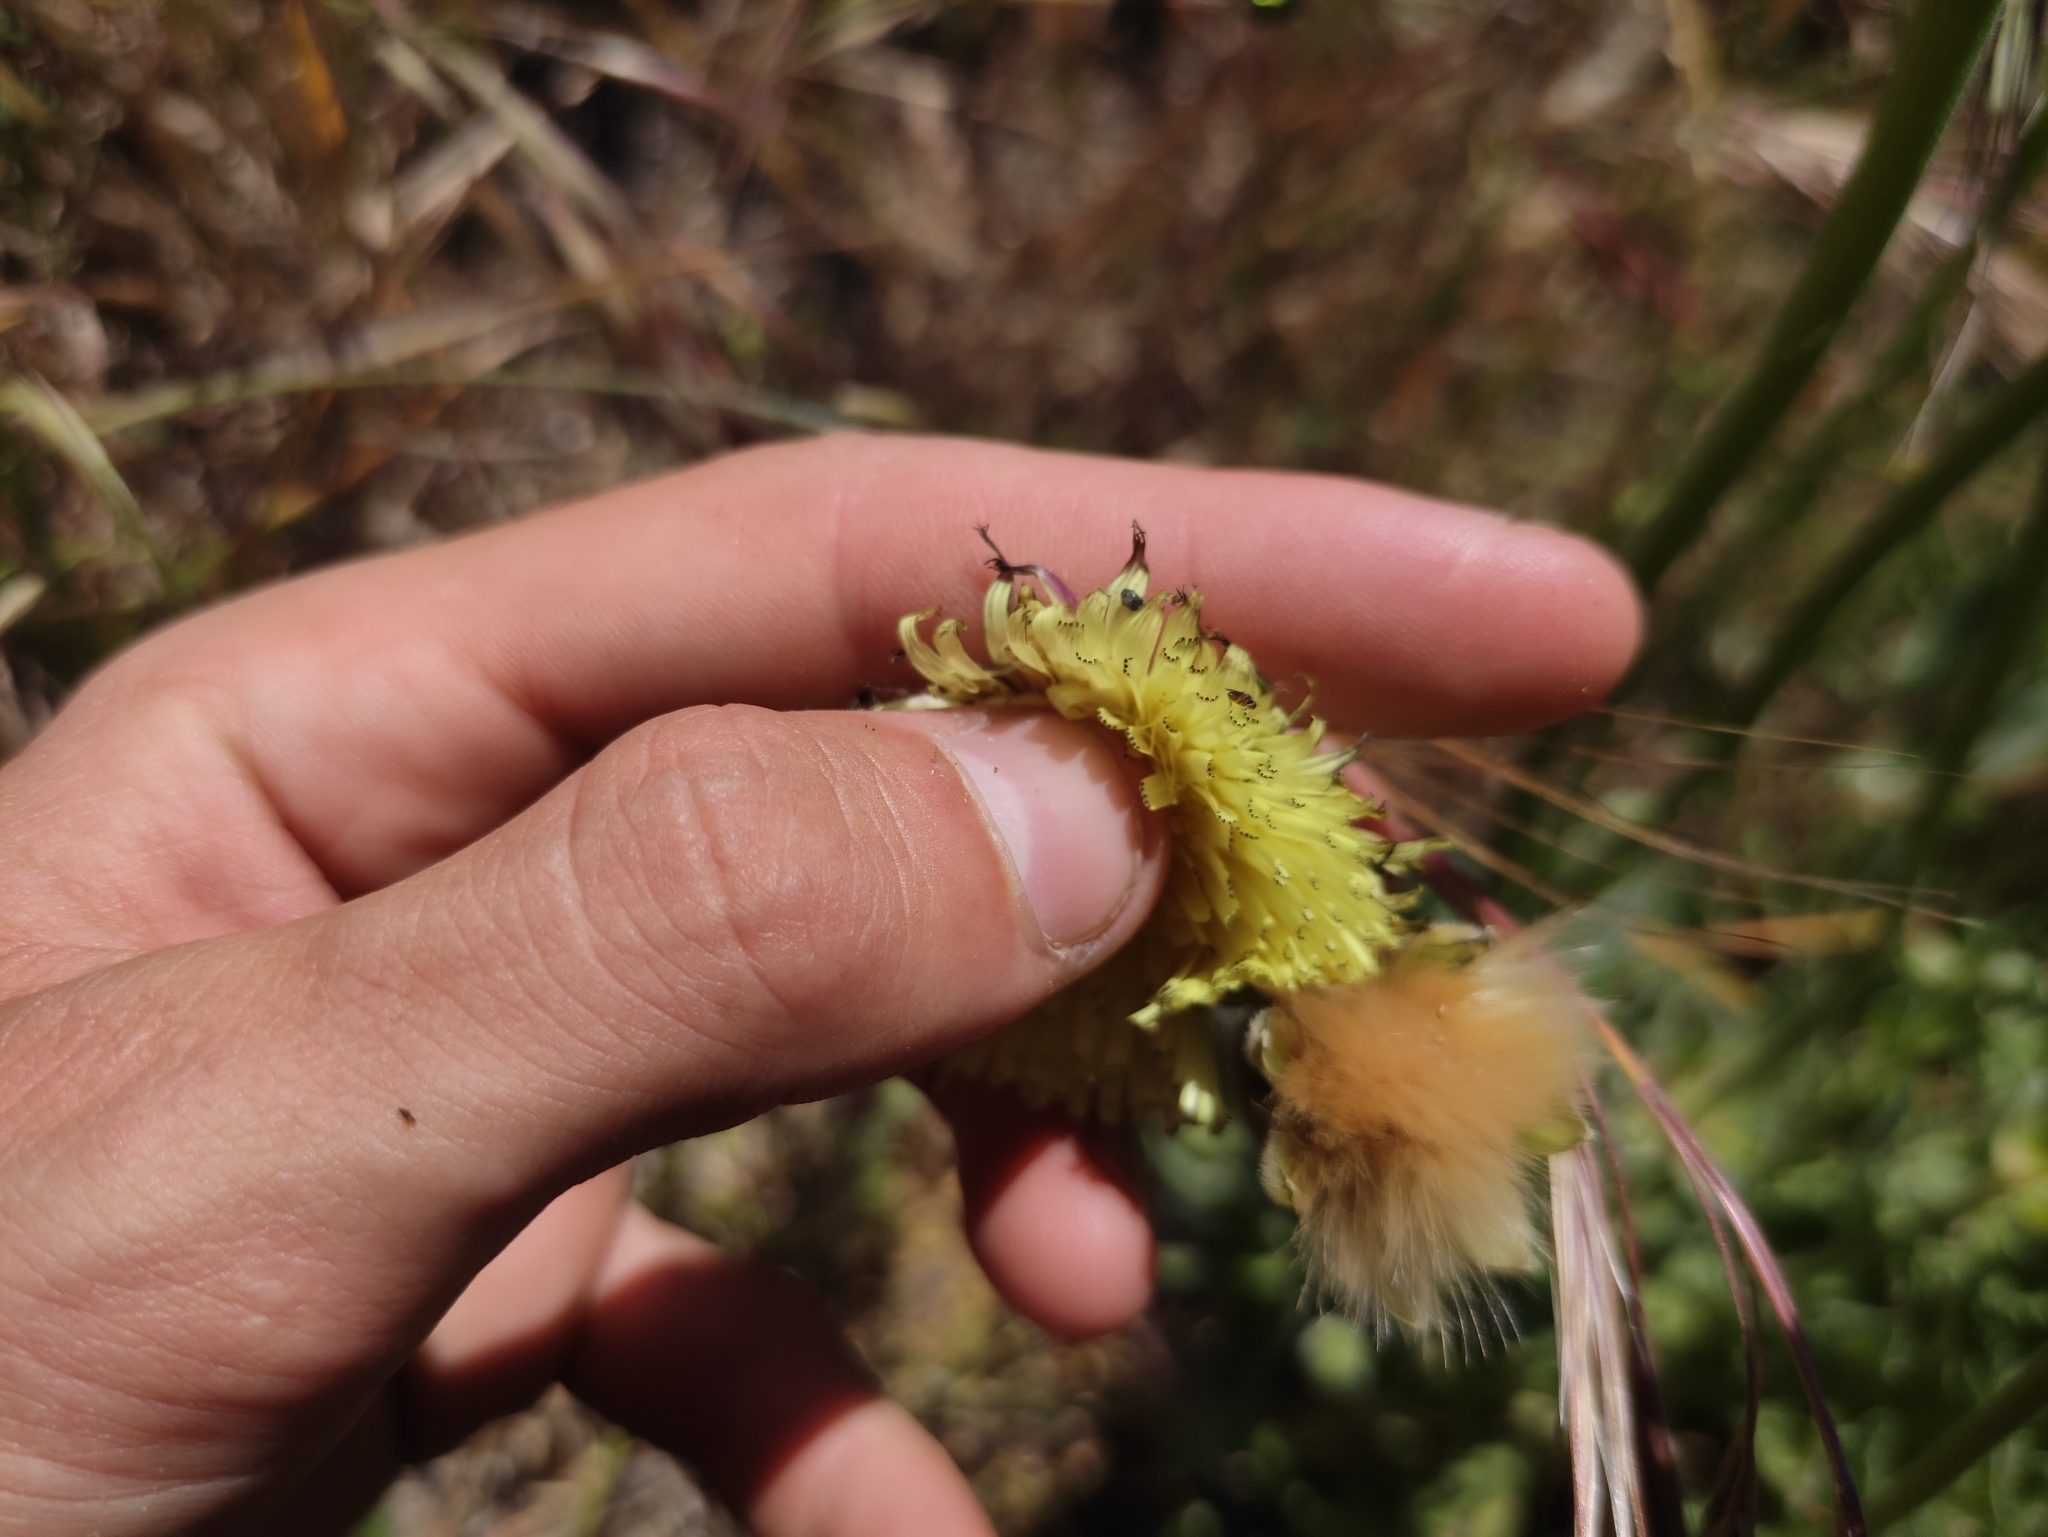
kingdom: Plantae
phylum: Tracheophyta
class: Magnoliopsida
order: Asterales
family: Asteraceae
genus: Urospermum
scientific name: Urospermum dalechampii
